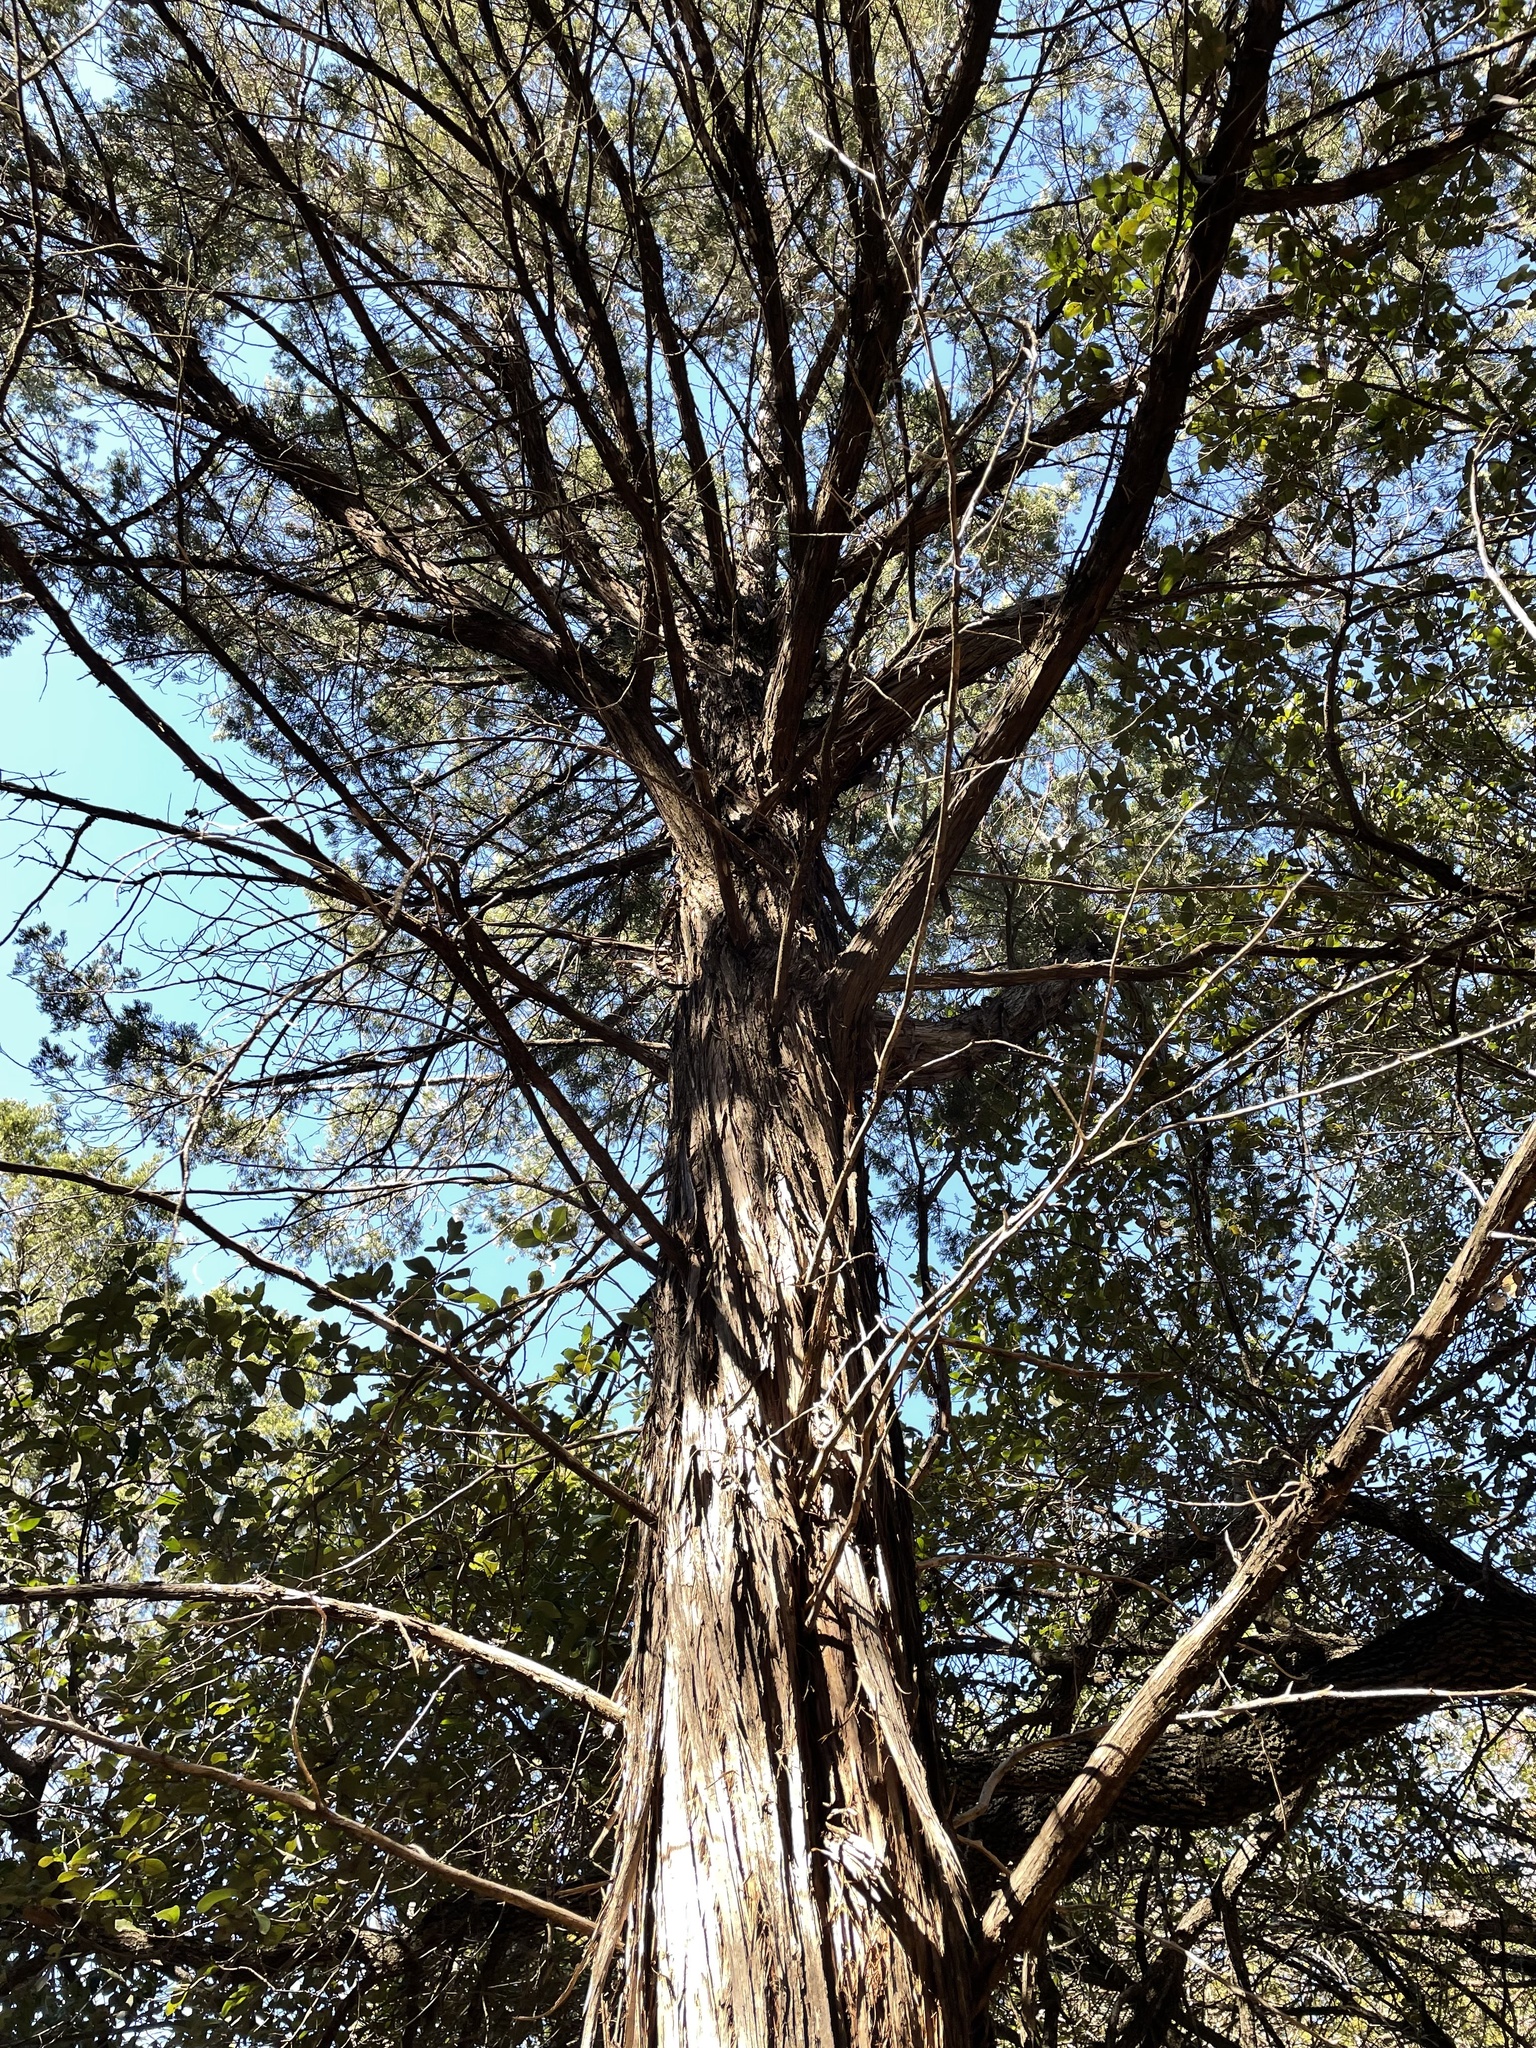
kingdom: Plantae
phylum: Tracheophyta
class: Pinopsida
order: Pinales
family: Cupressaceae
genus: Juniperus
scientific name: Juniperus ashei
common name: Mexican juniper
